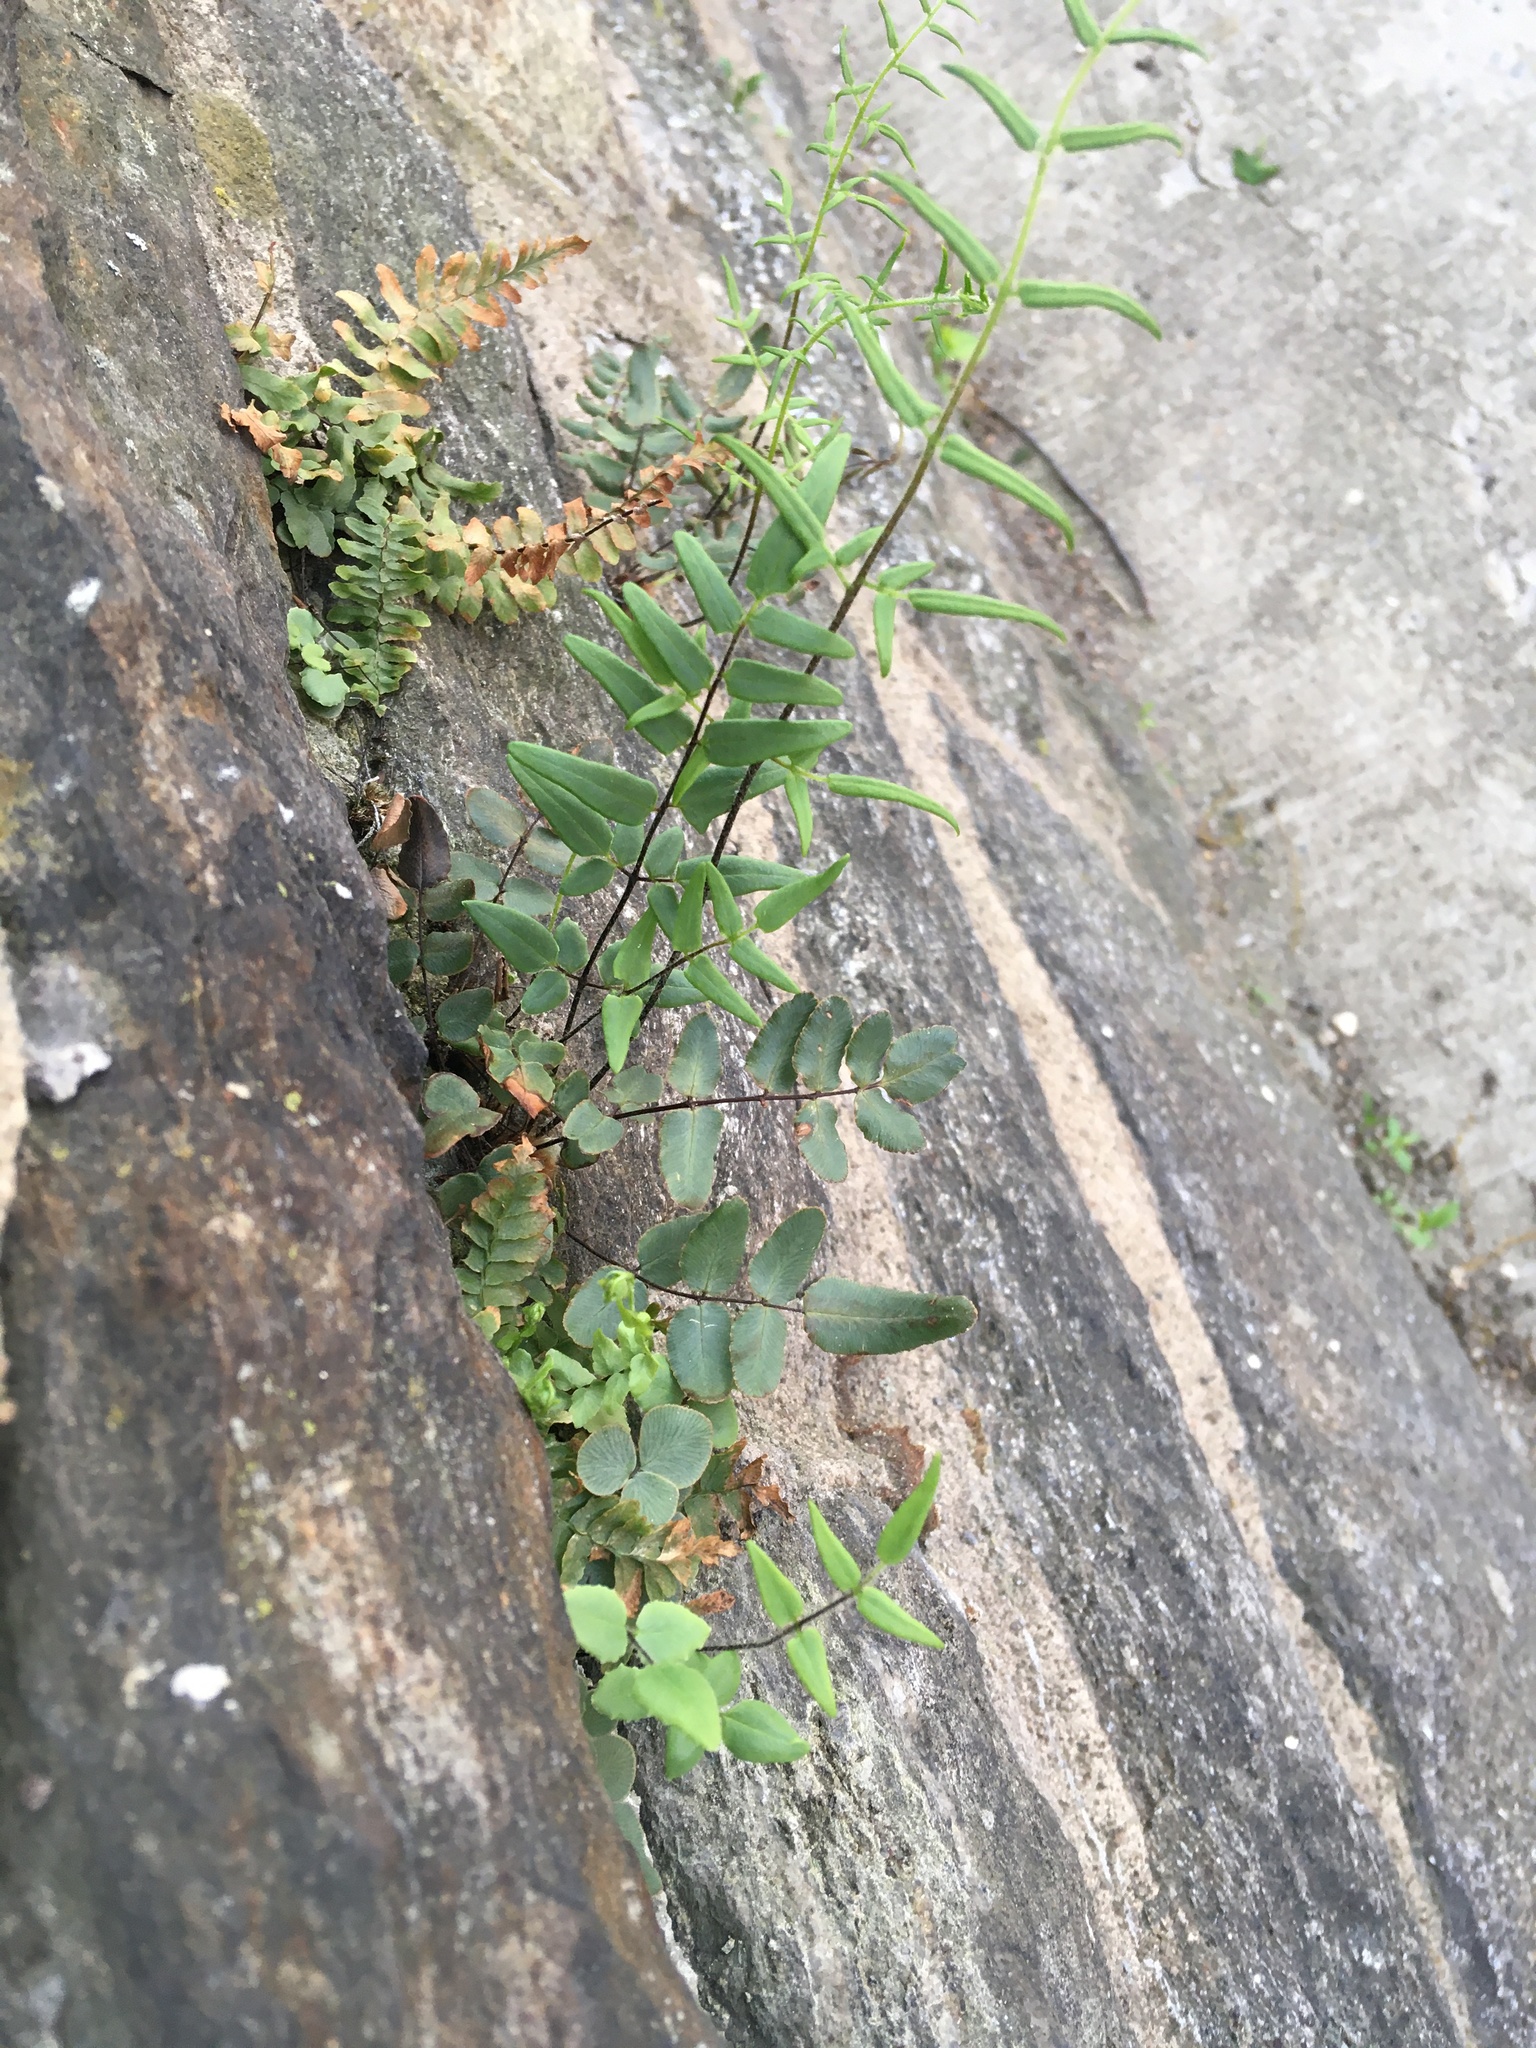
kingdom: Plantae
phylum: Tracheophyta
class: Polypodiopsida
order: Polypodiales
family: Pteridaceae
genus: Pellaea
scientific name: Pellaea atropurpurea
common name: Hairy cliffbrake
